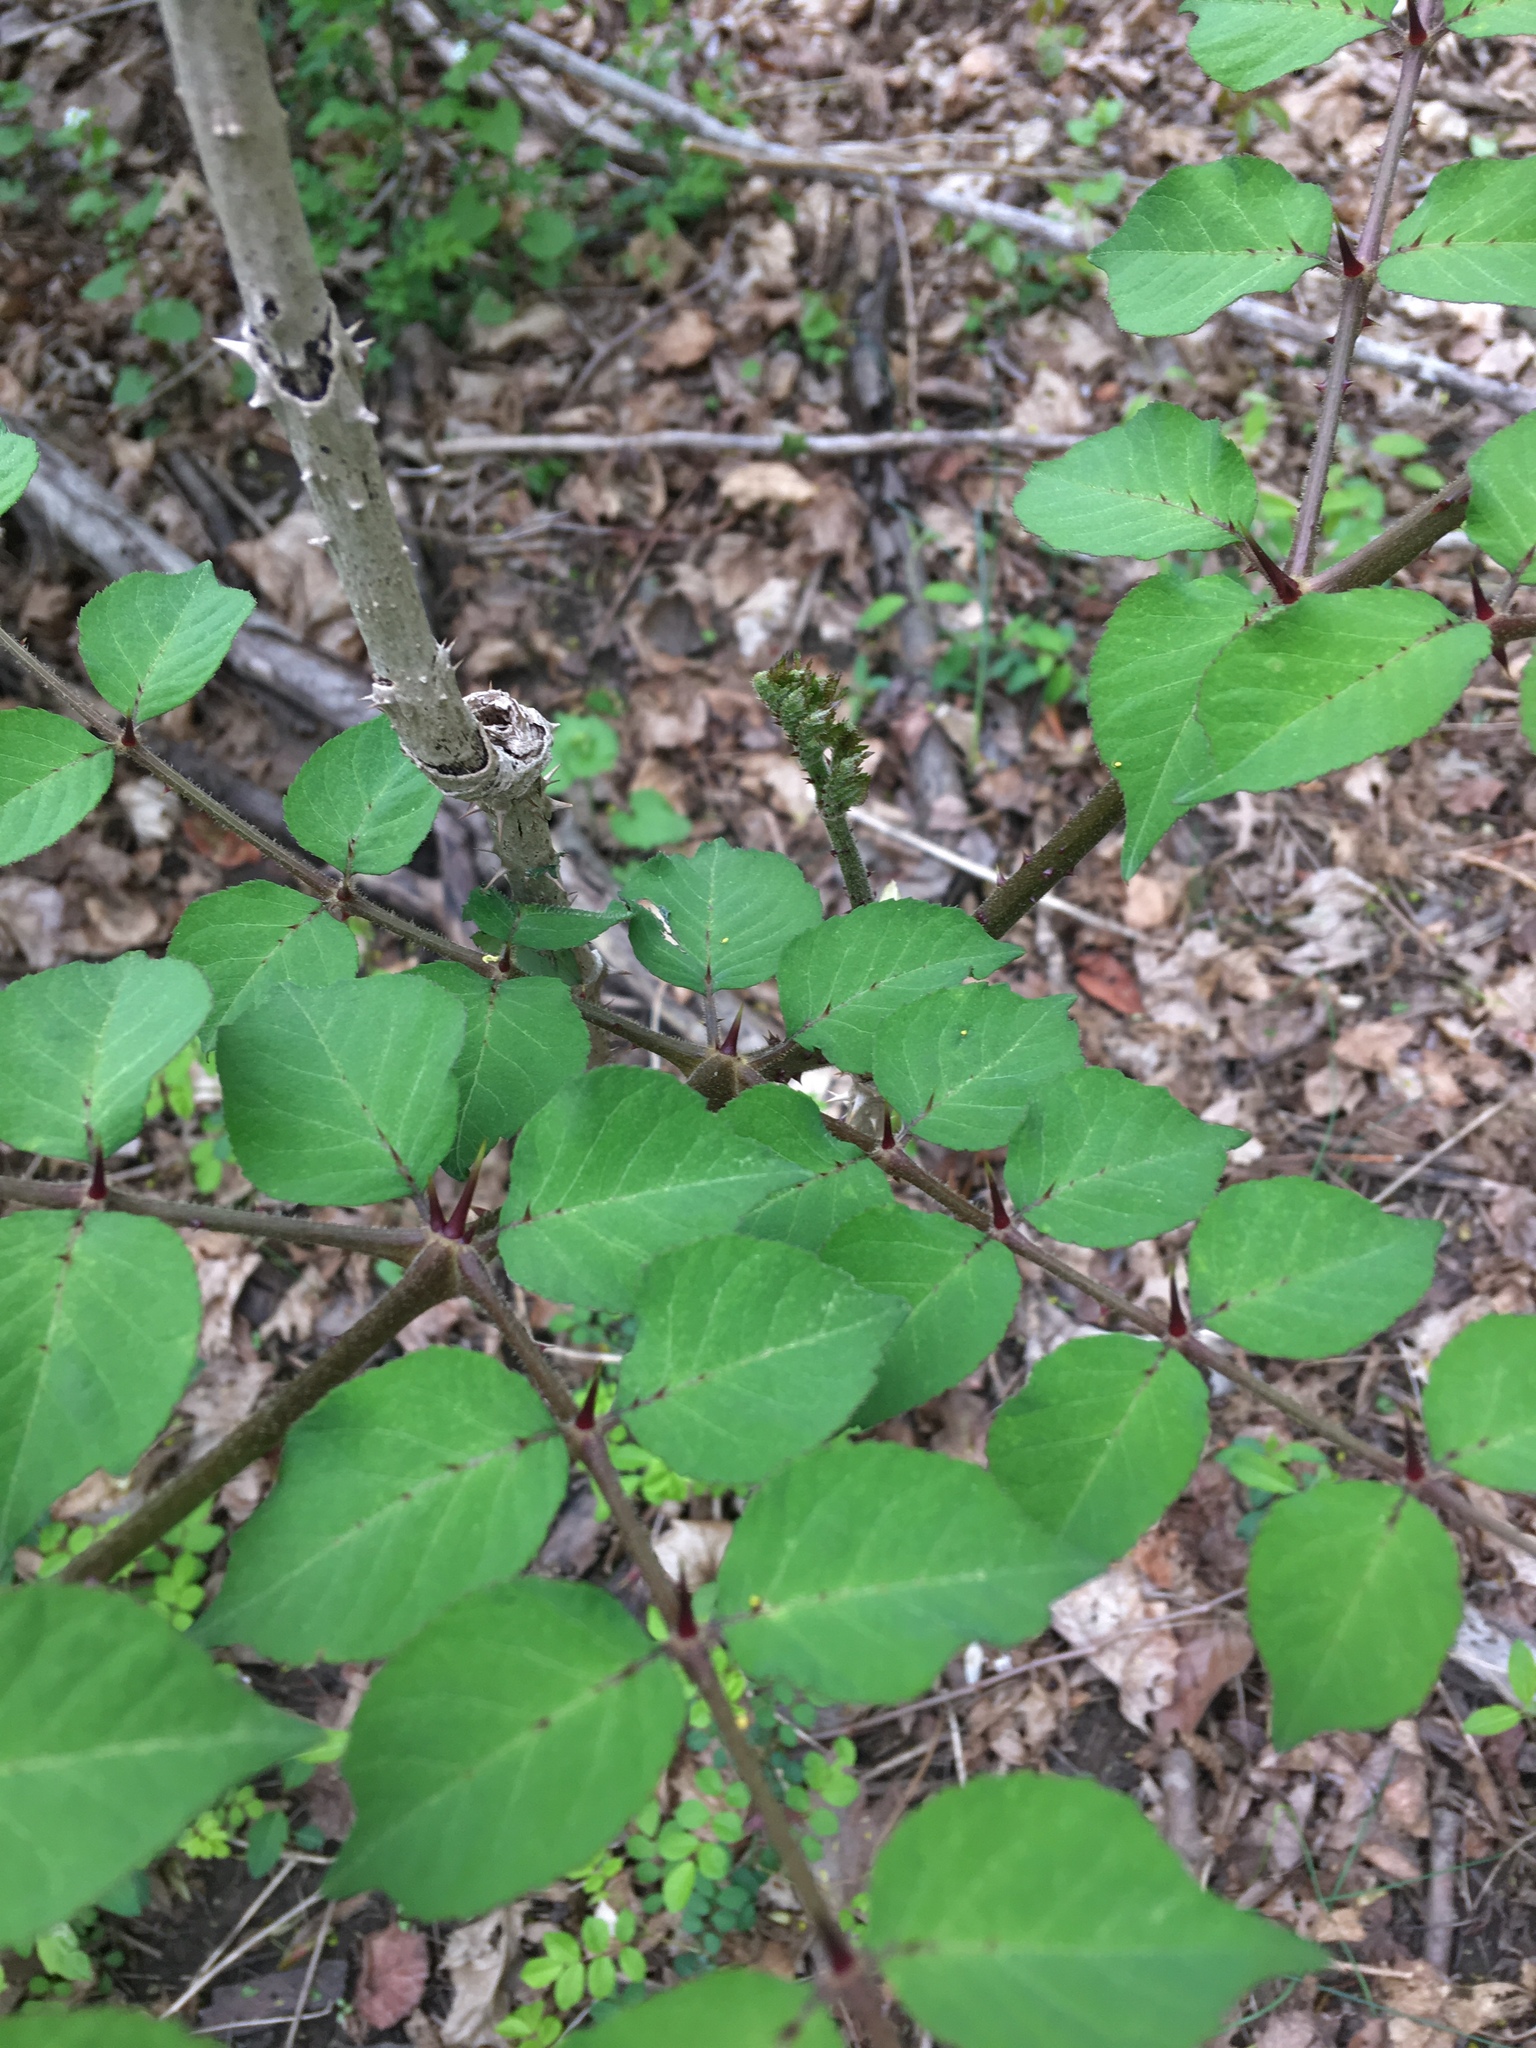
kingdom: Plantae
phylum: Tracheophyta
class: Magnoliopsida
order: Apiales
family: Araliaceae
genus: Aralia
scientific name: Aralia elata
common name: Japanese angelica-tree
